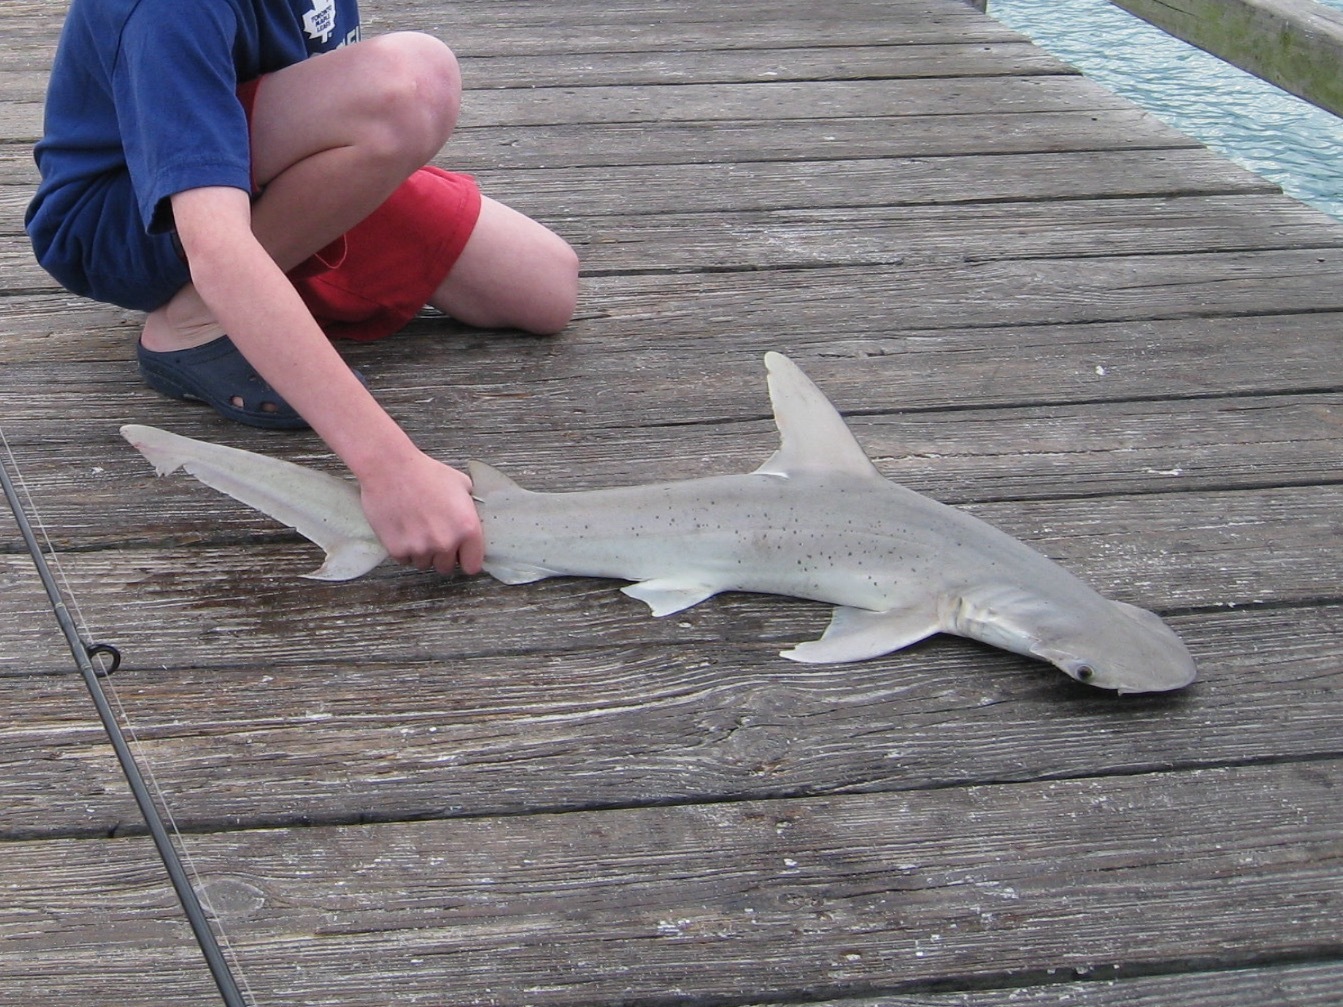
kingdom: Animalia
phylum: Chordata
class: Elasmobranchii
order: Carcharhiniformes
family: Sphyrnidae
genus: Sphyrna
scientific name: Sphyrna tiburo
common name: Bonnethead
